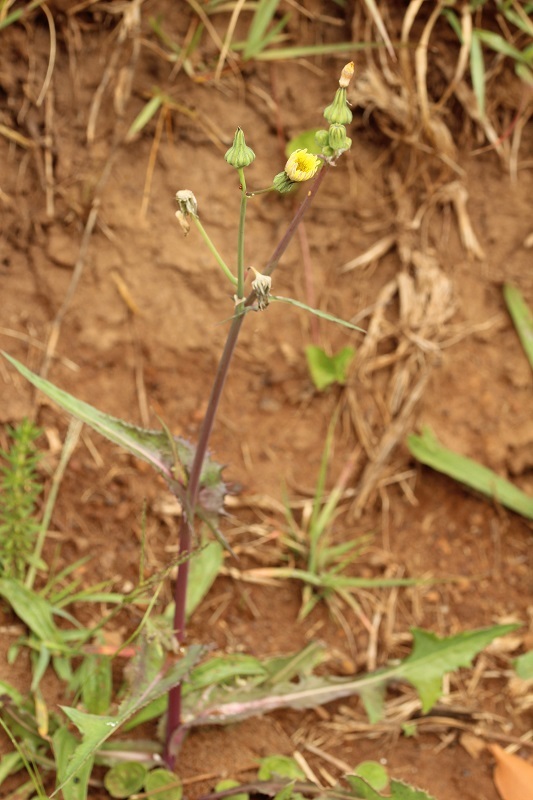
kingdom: Plantae
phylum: Tracheophyta
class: Magnoliopsida
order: Asterales
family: Asteraceae
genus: Sonchus
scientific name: Sonchus oleraceus
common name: Common sowthistle
